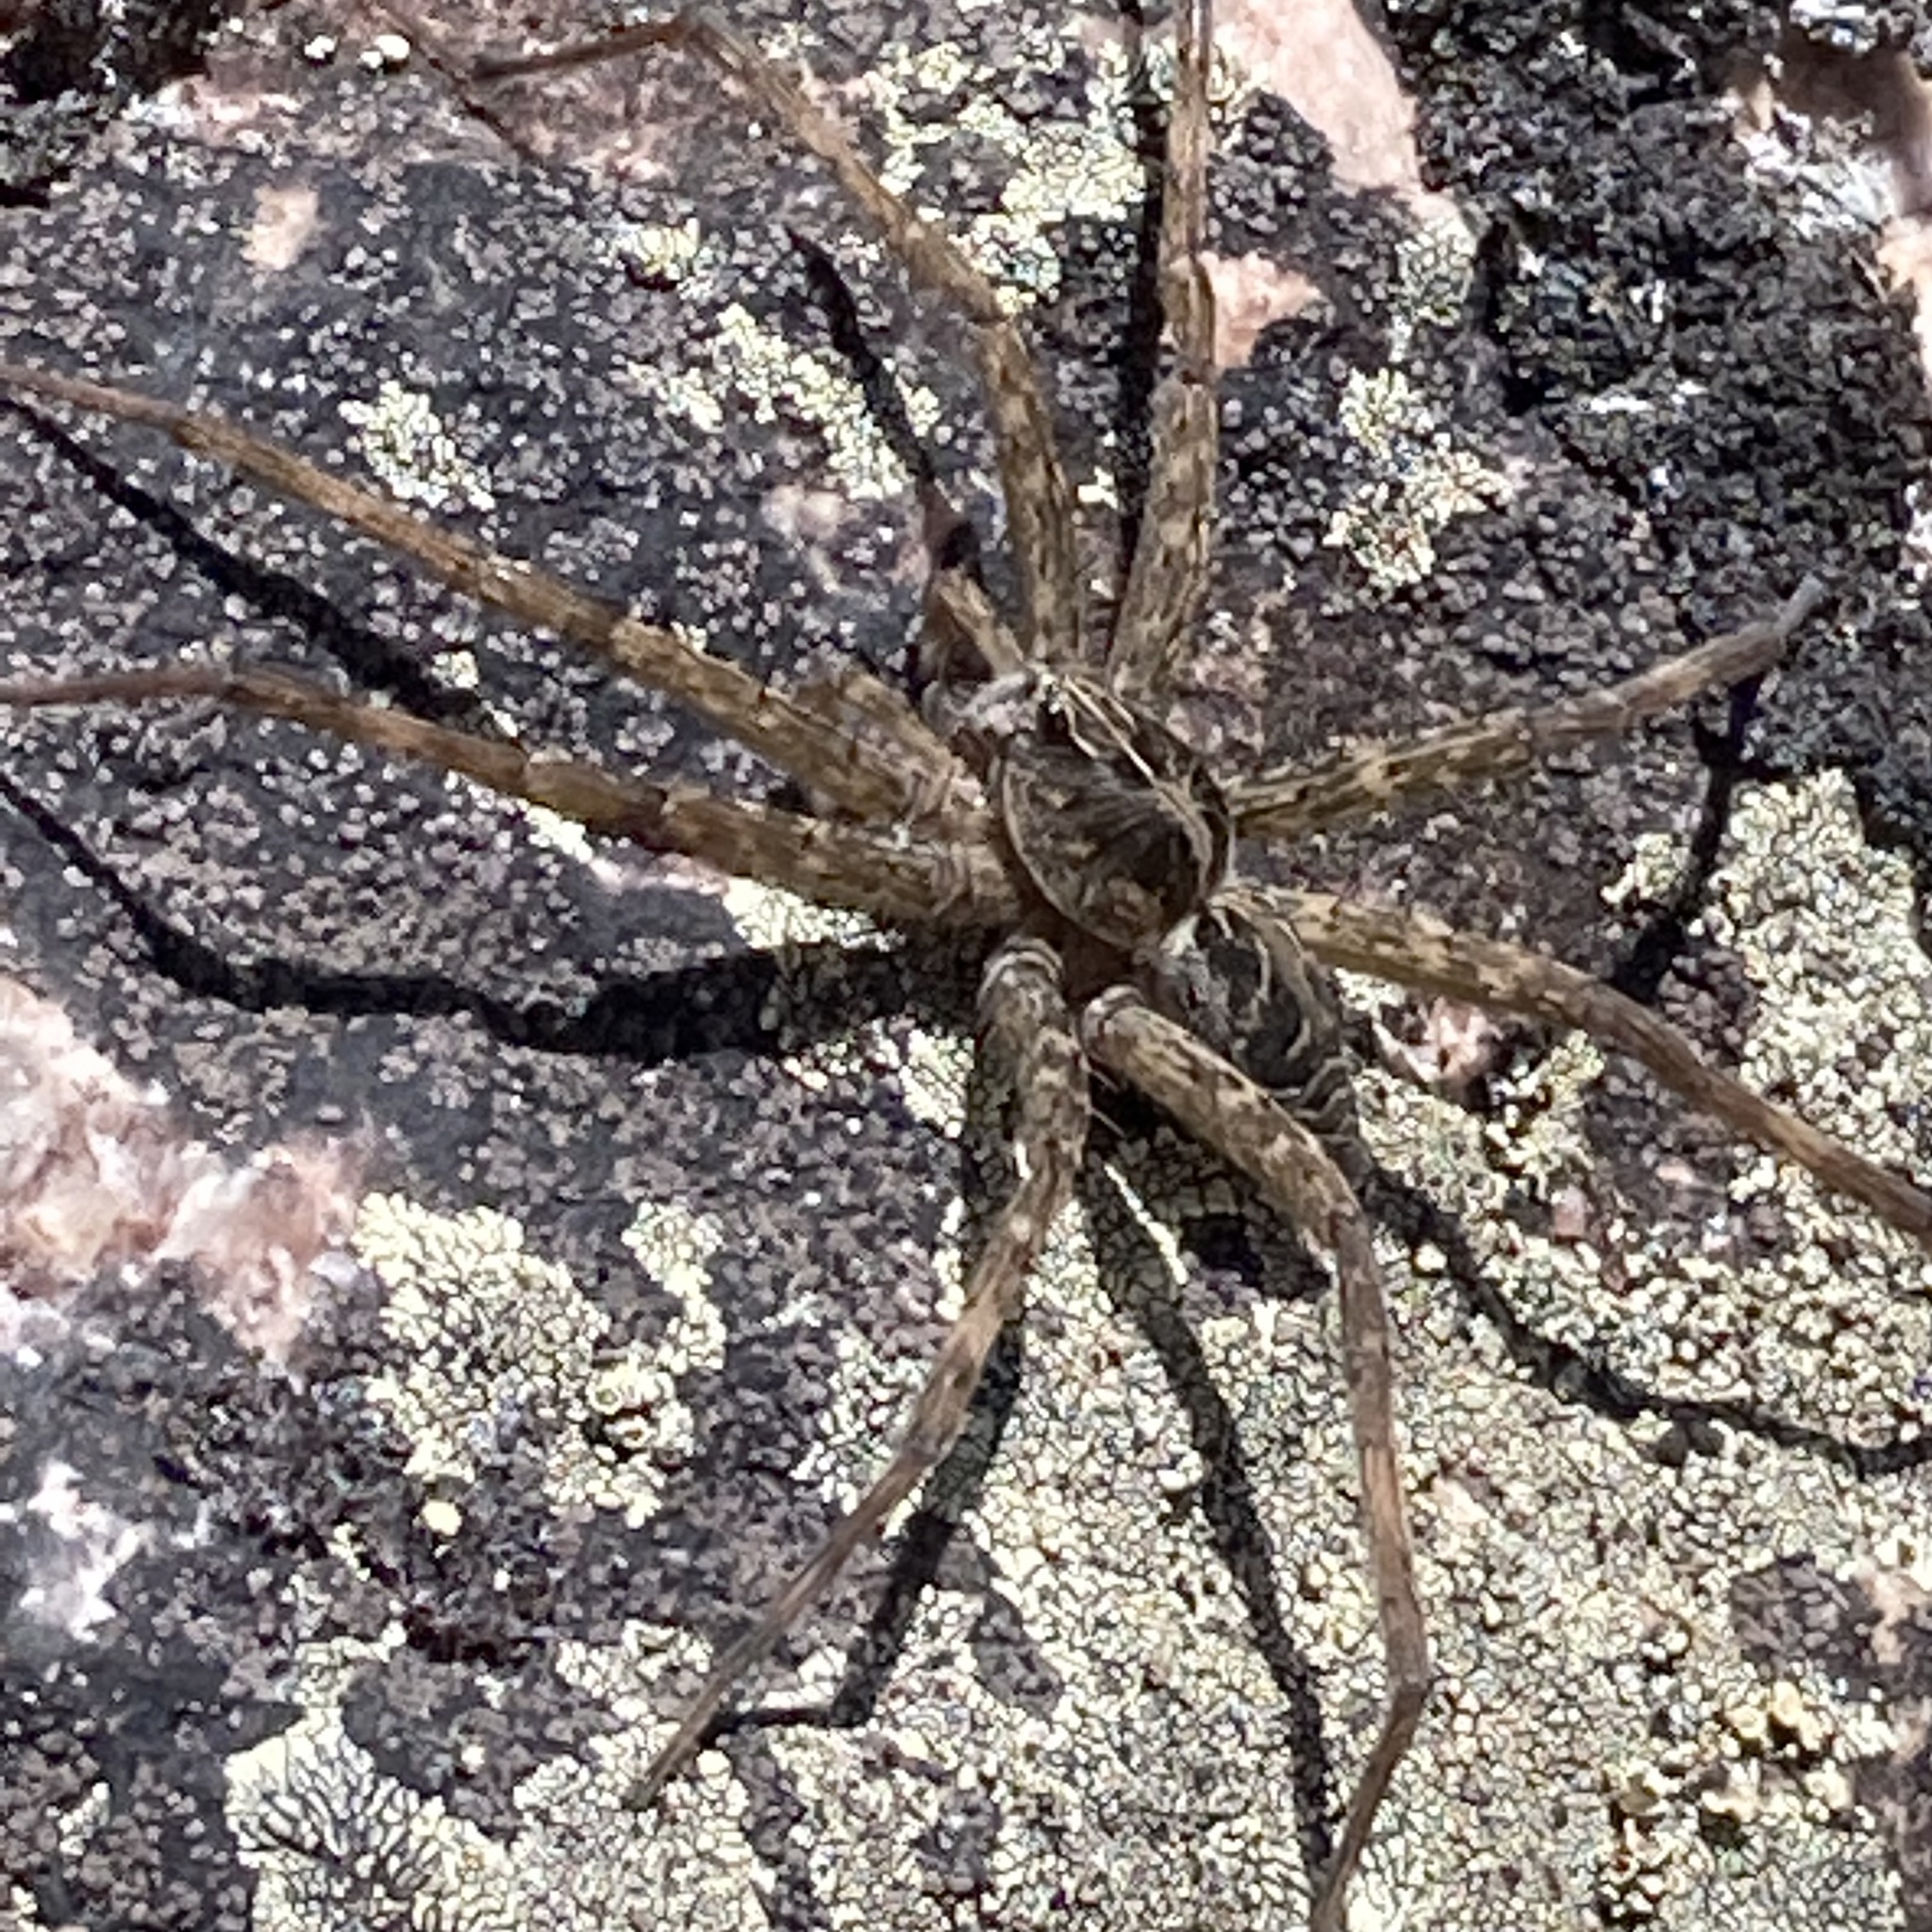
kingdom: Animalia
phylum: Arthropoda
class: Arachnida
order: Araneae
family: Pisauridae
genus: Dolomedes
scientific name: Dolomedes scriptus
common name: Striped fishing spider
